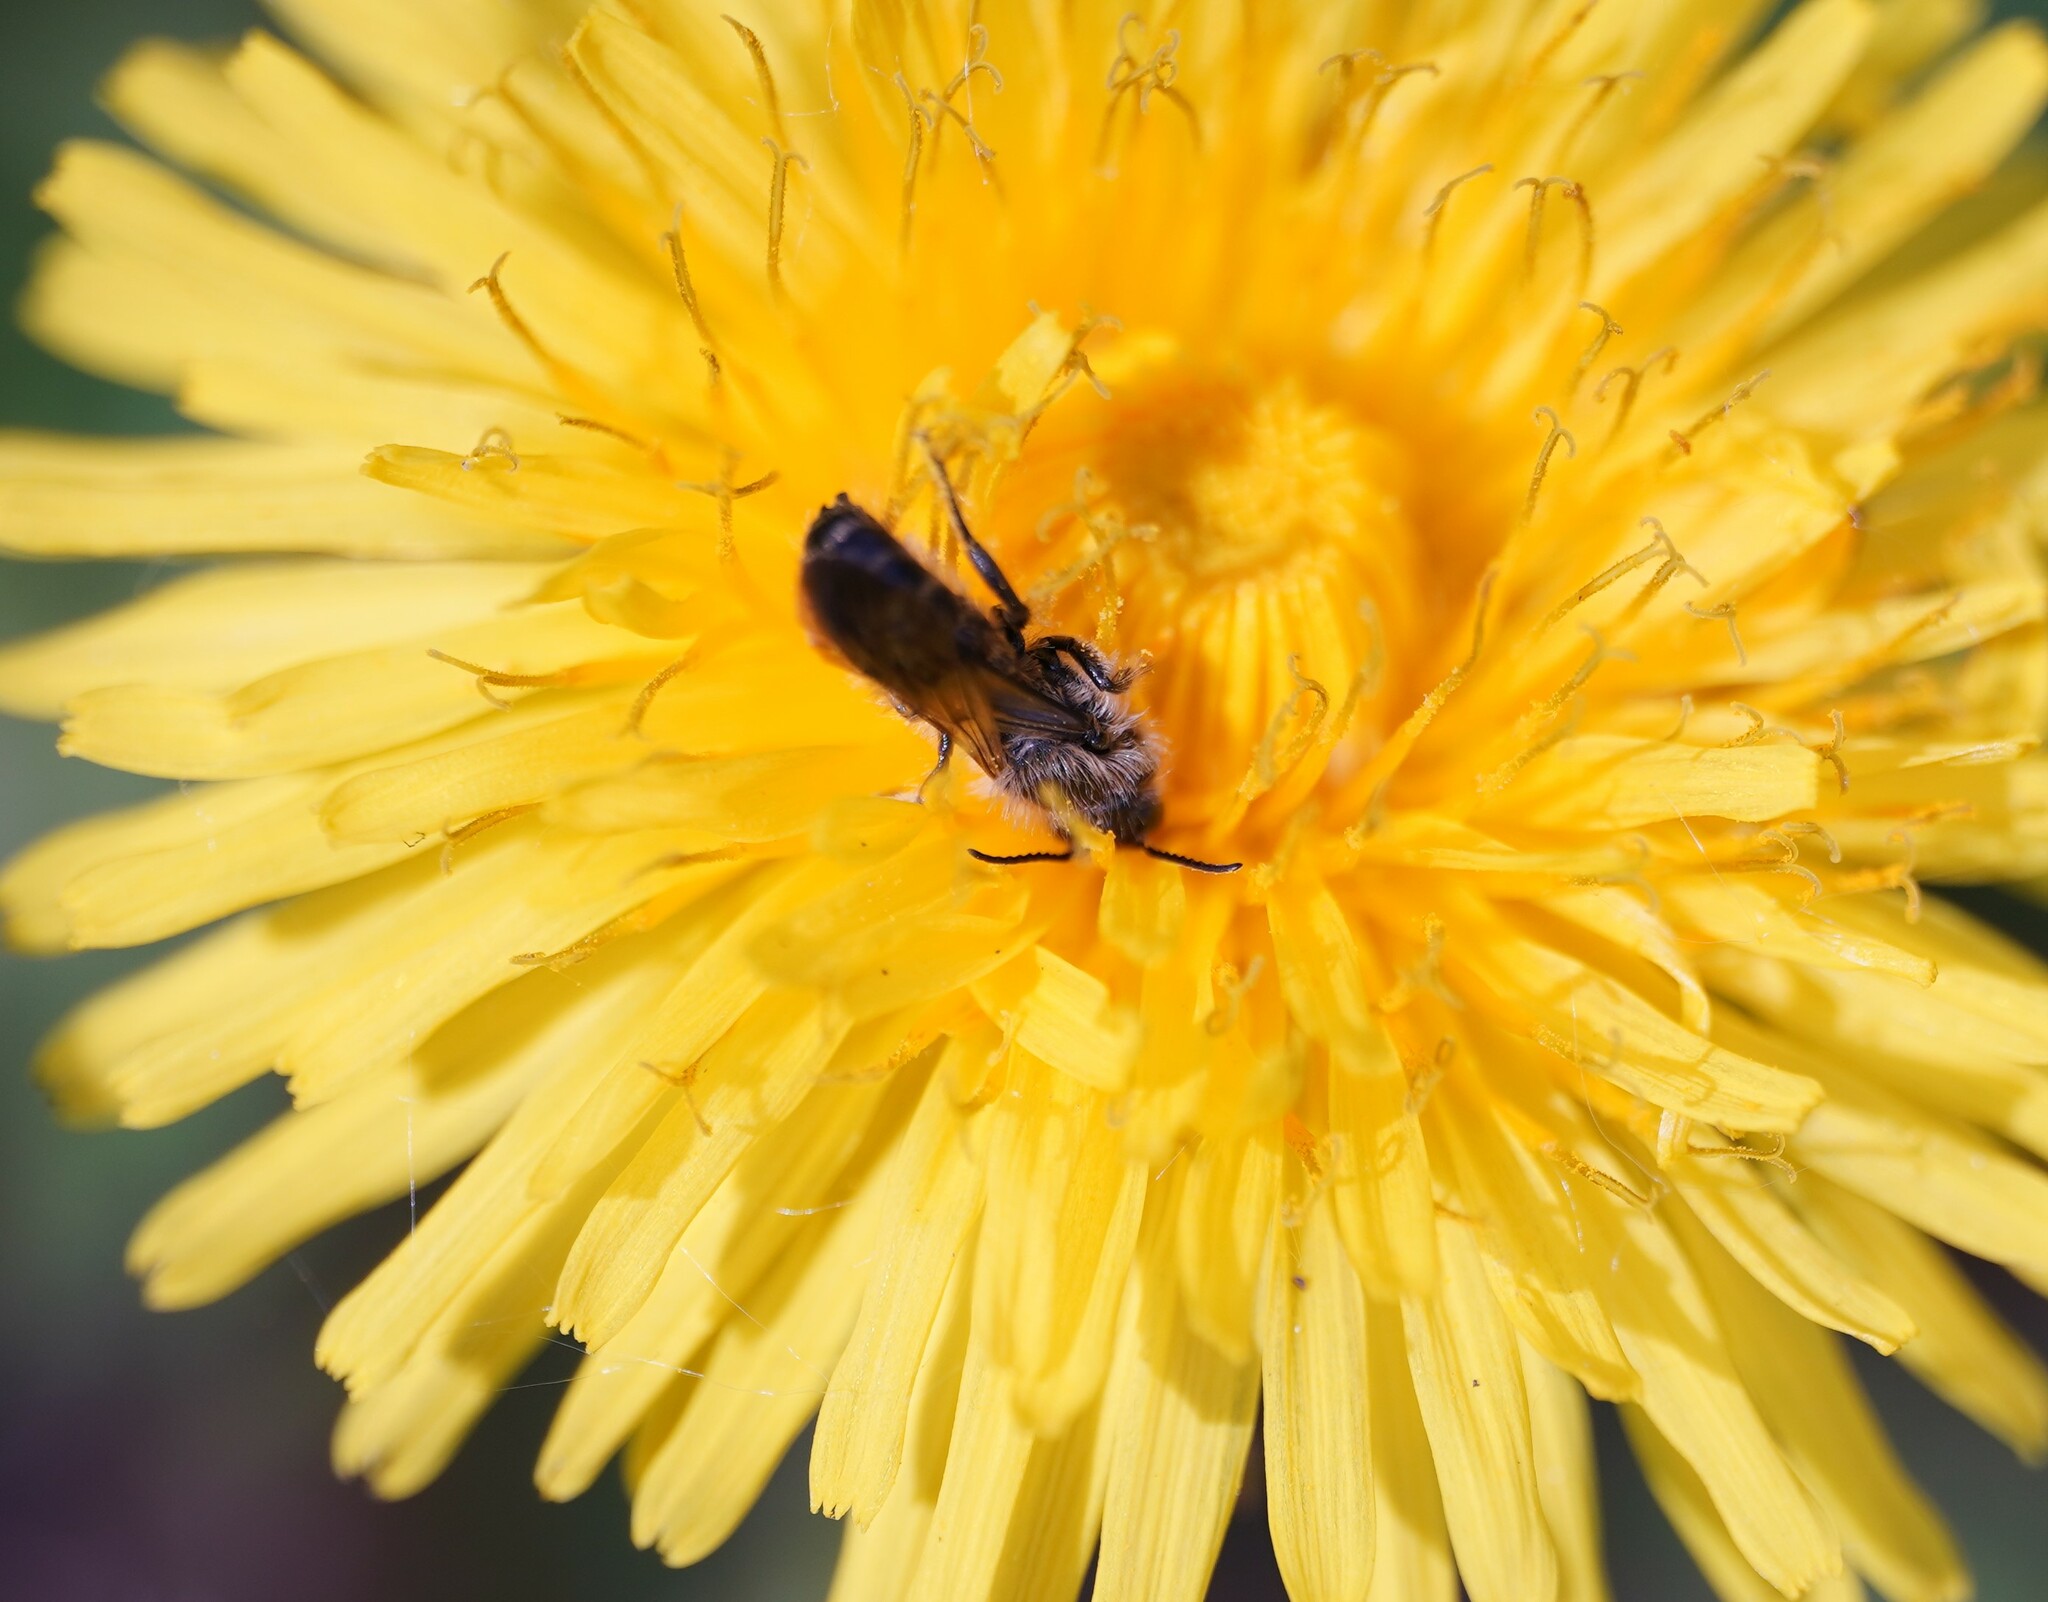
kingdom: Animalia
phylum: Arthropoda
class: Insecta
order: Hymenoptera
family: Megachilidae
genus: Chelostoma
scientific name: Chelostoma florisomne
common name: Sleepy carpenter bee
